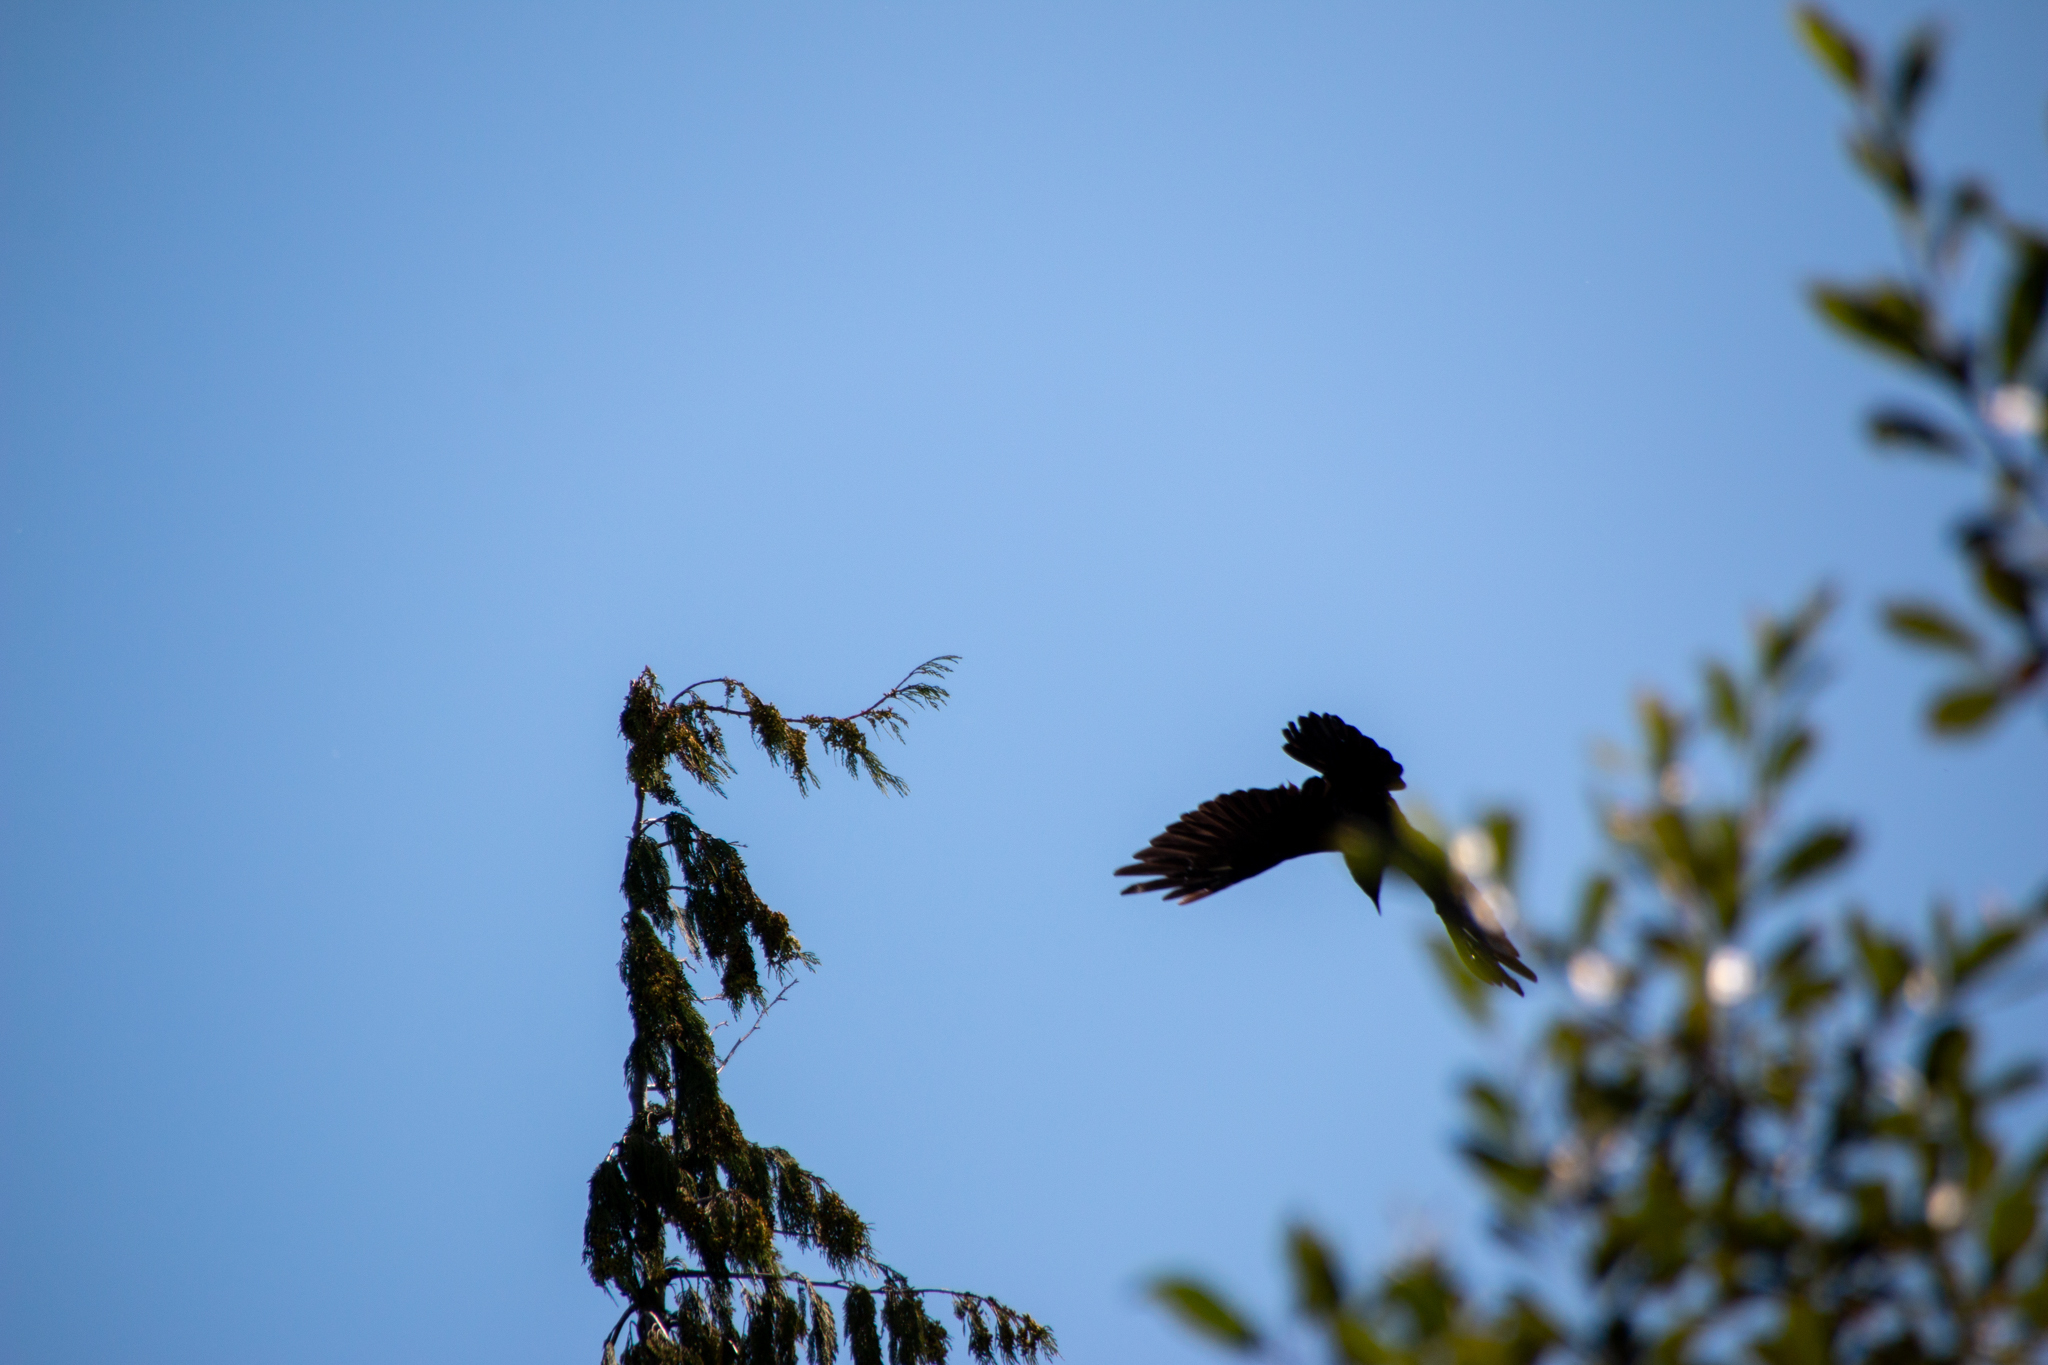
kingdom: Animalia
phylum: Chordata
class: Aves
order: Passeriformes
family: Corvidae
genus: Corvus
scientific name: Corvus corax
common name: Common raven
